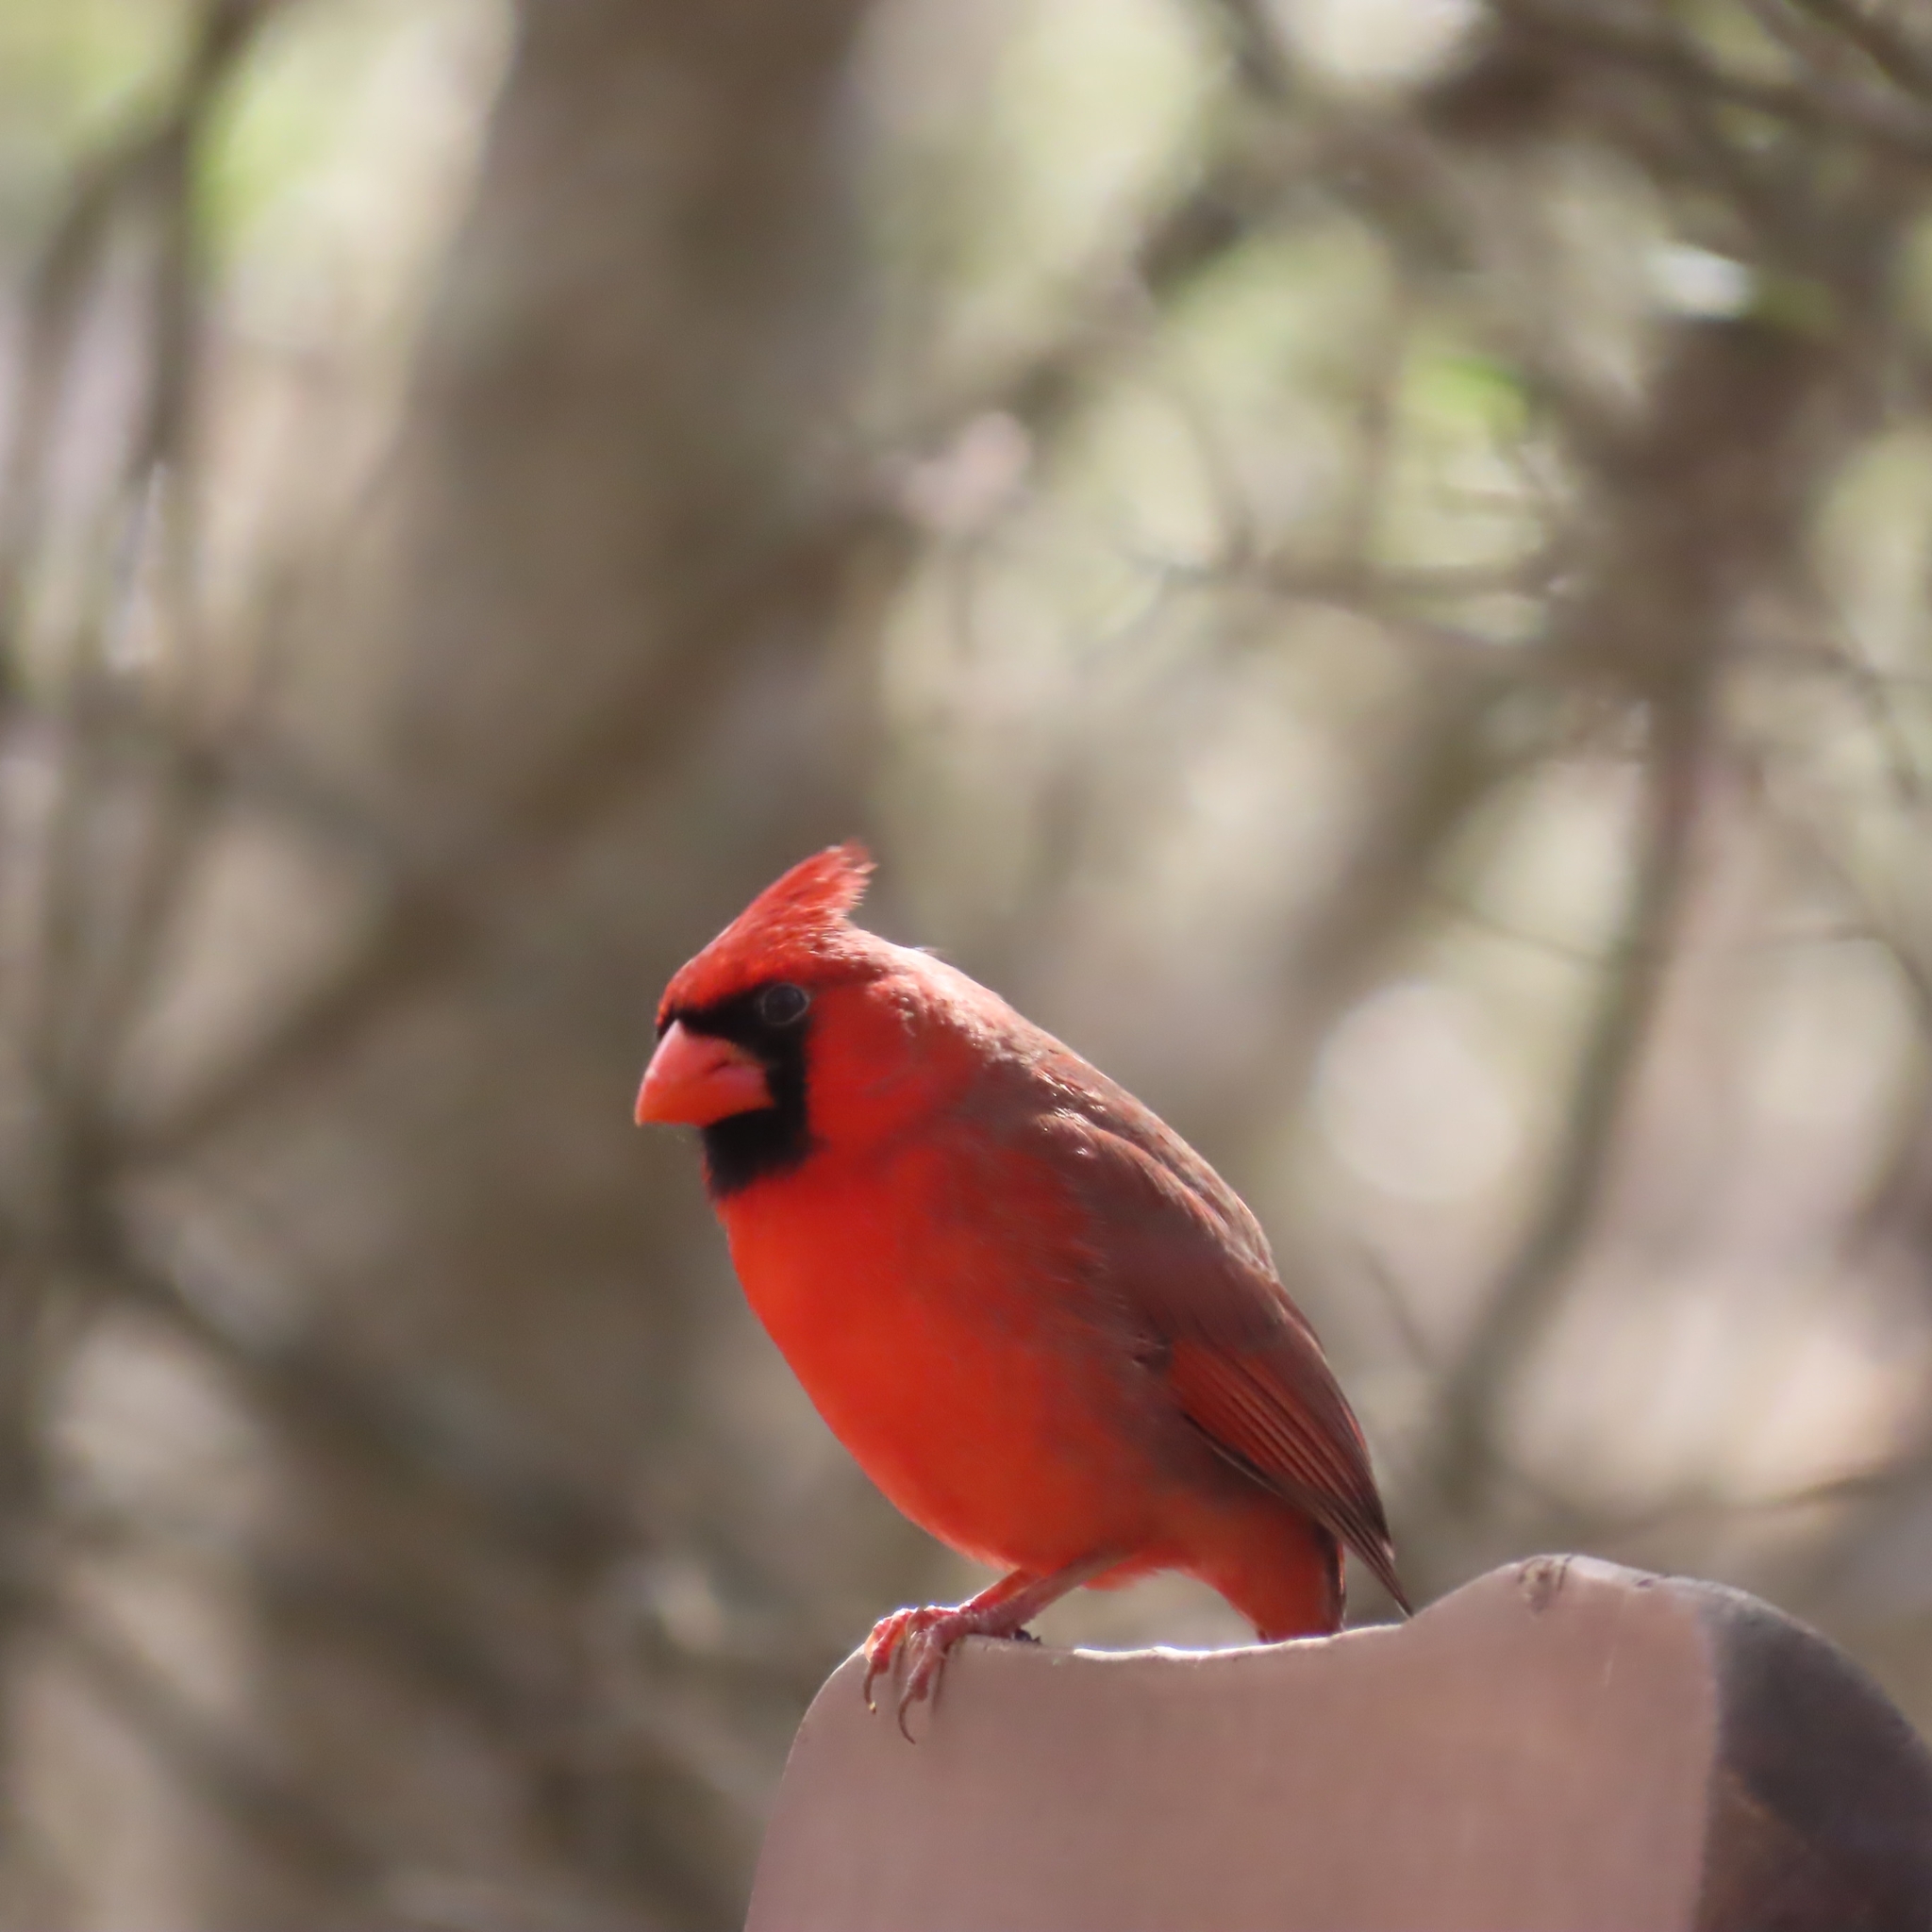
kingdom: Animalia
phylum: Chordata
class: Aves
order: Passeriformes
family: Cardinalidae
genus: Cardinalis
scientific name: Cardinalis cardinalis
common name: Northern cardinal
